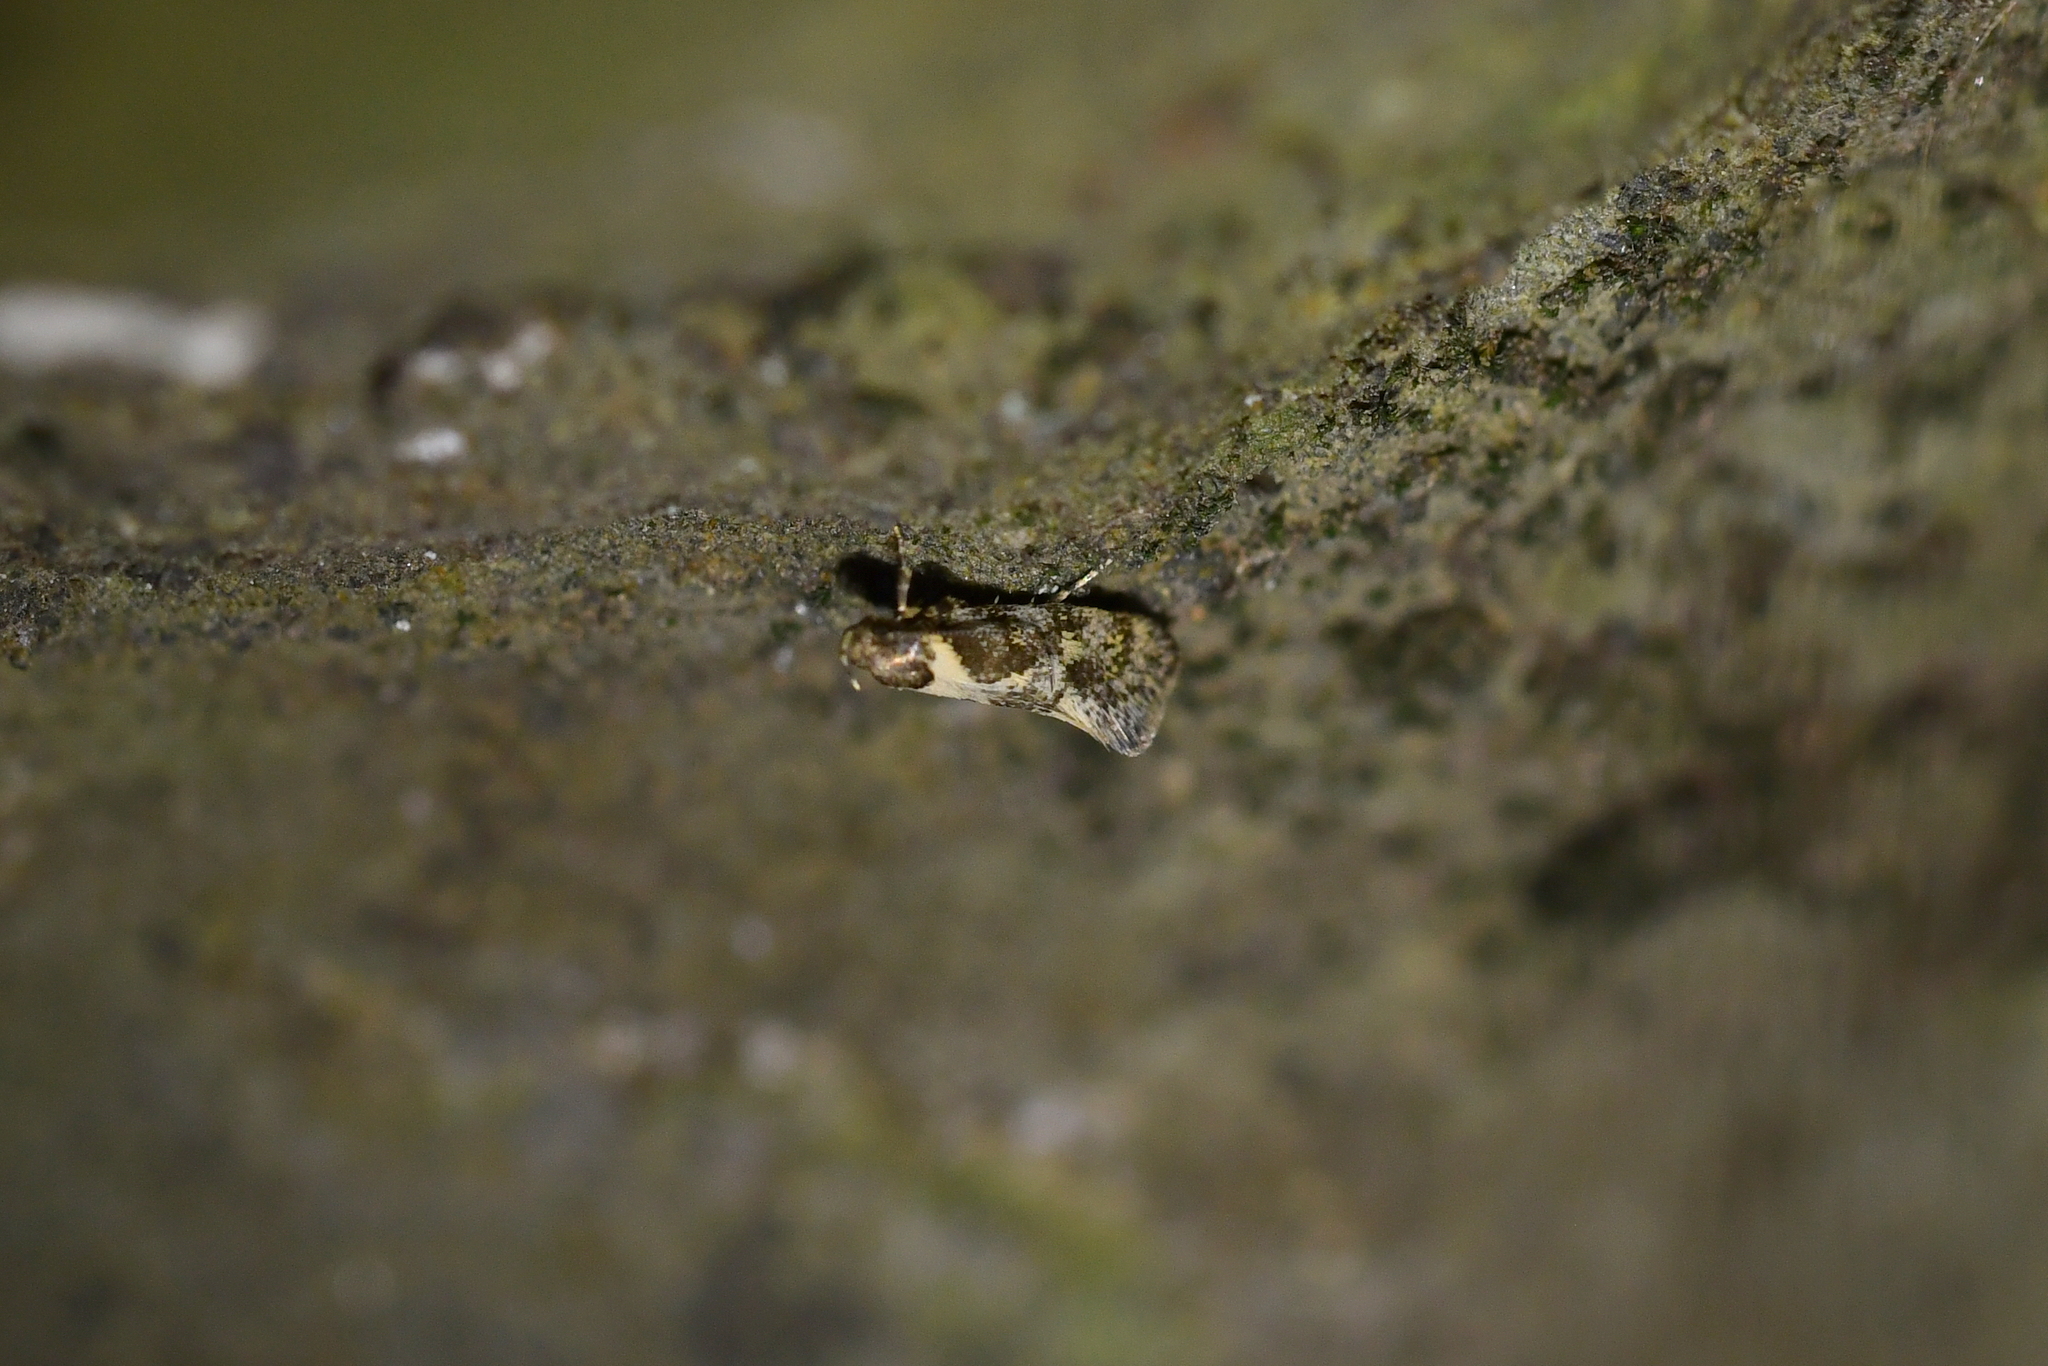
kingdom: Animalia
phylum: Arthropoda
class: Insecta
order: Lepidoptera
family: Oecophoridae
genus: Tingena
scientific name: Tingena lassa
